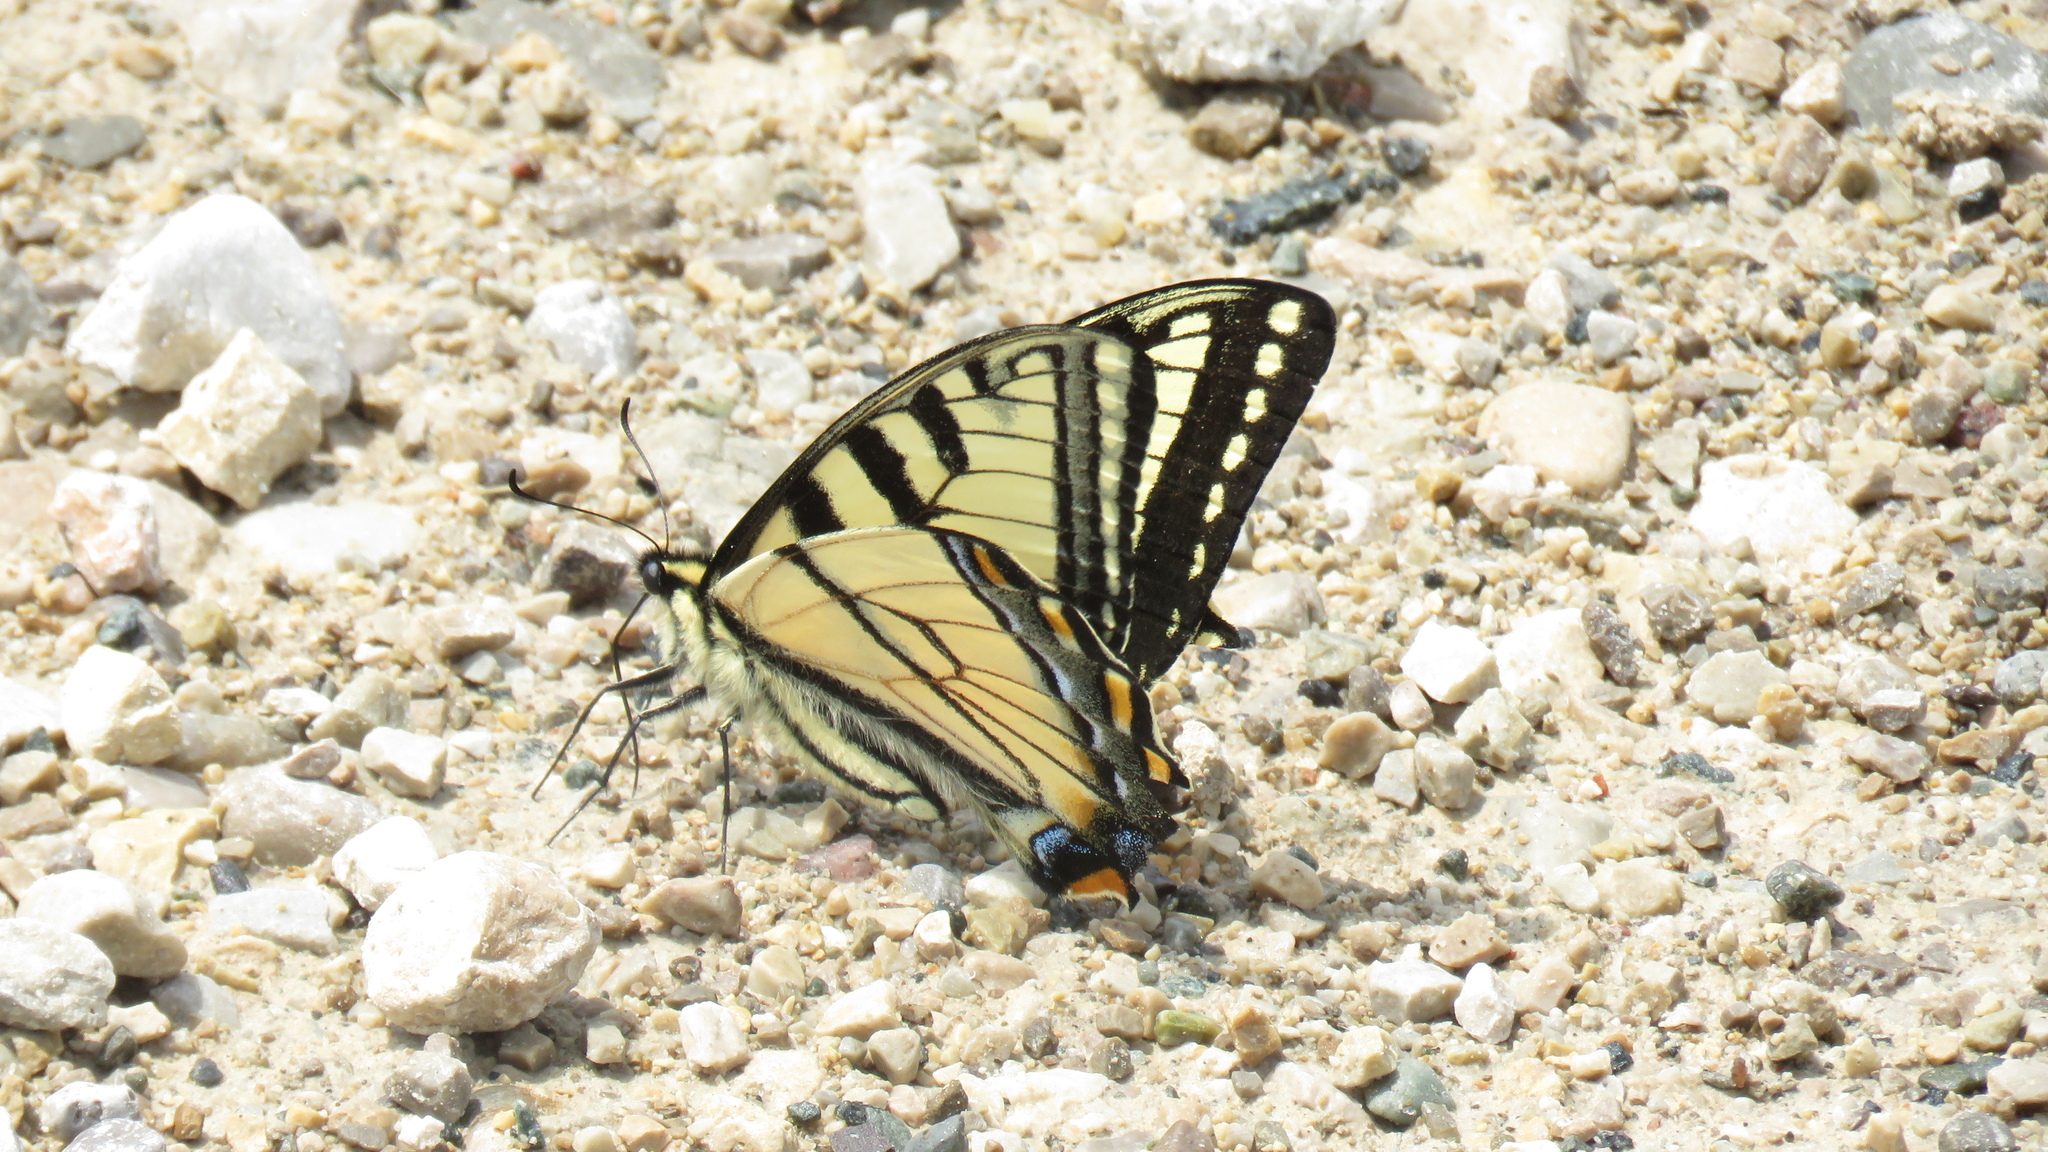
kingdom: Animalia
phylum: Arthropoda
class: Insecta
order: Lepidoptera
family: Papilionidae
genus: Papilio
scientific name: Papilio
